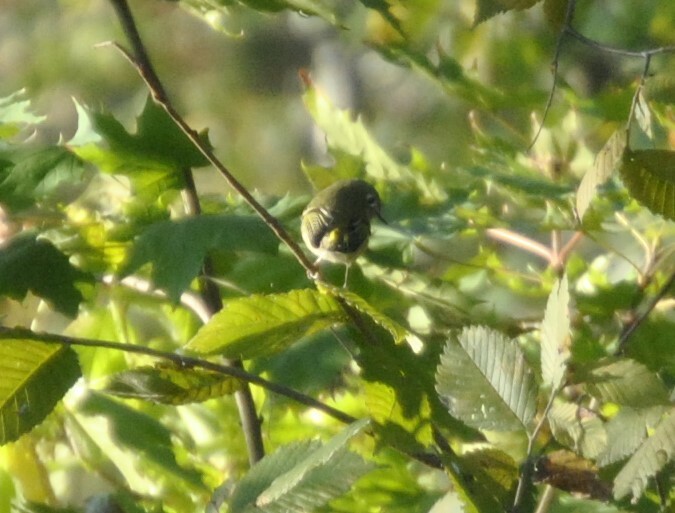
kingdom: Animalia
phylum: Chordata
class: Aves
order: Passeriformes
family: Regulidae
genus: Regulus
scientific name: Regulus calendula
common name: Ruby-crowned kinglet
